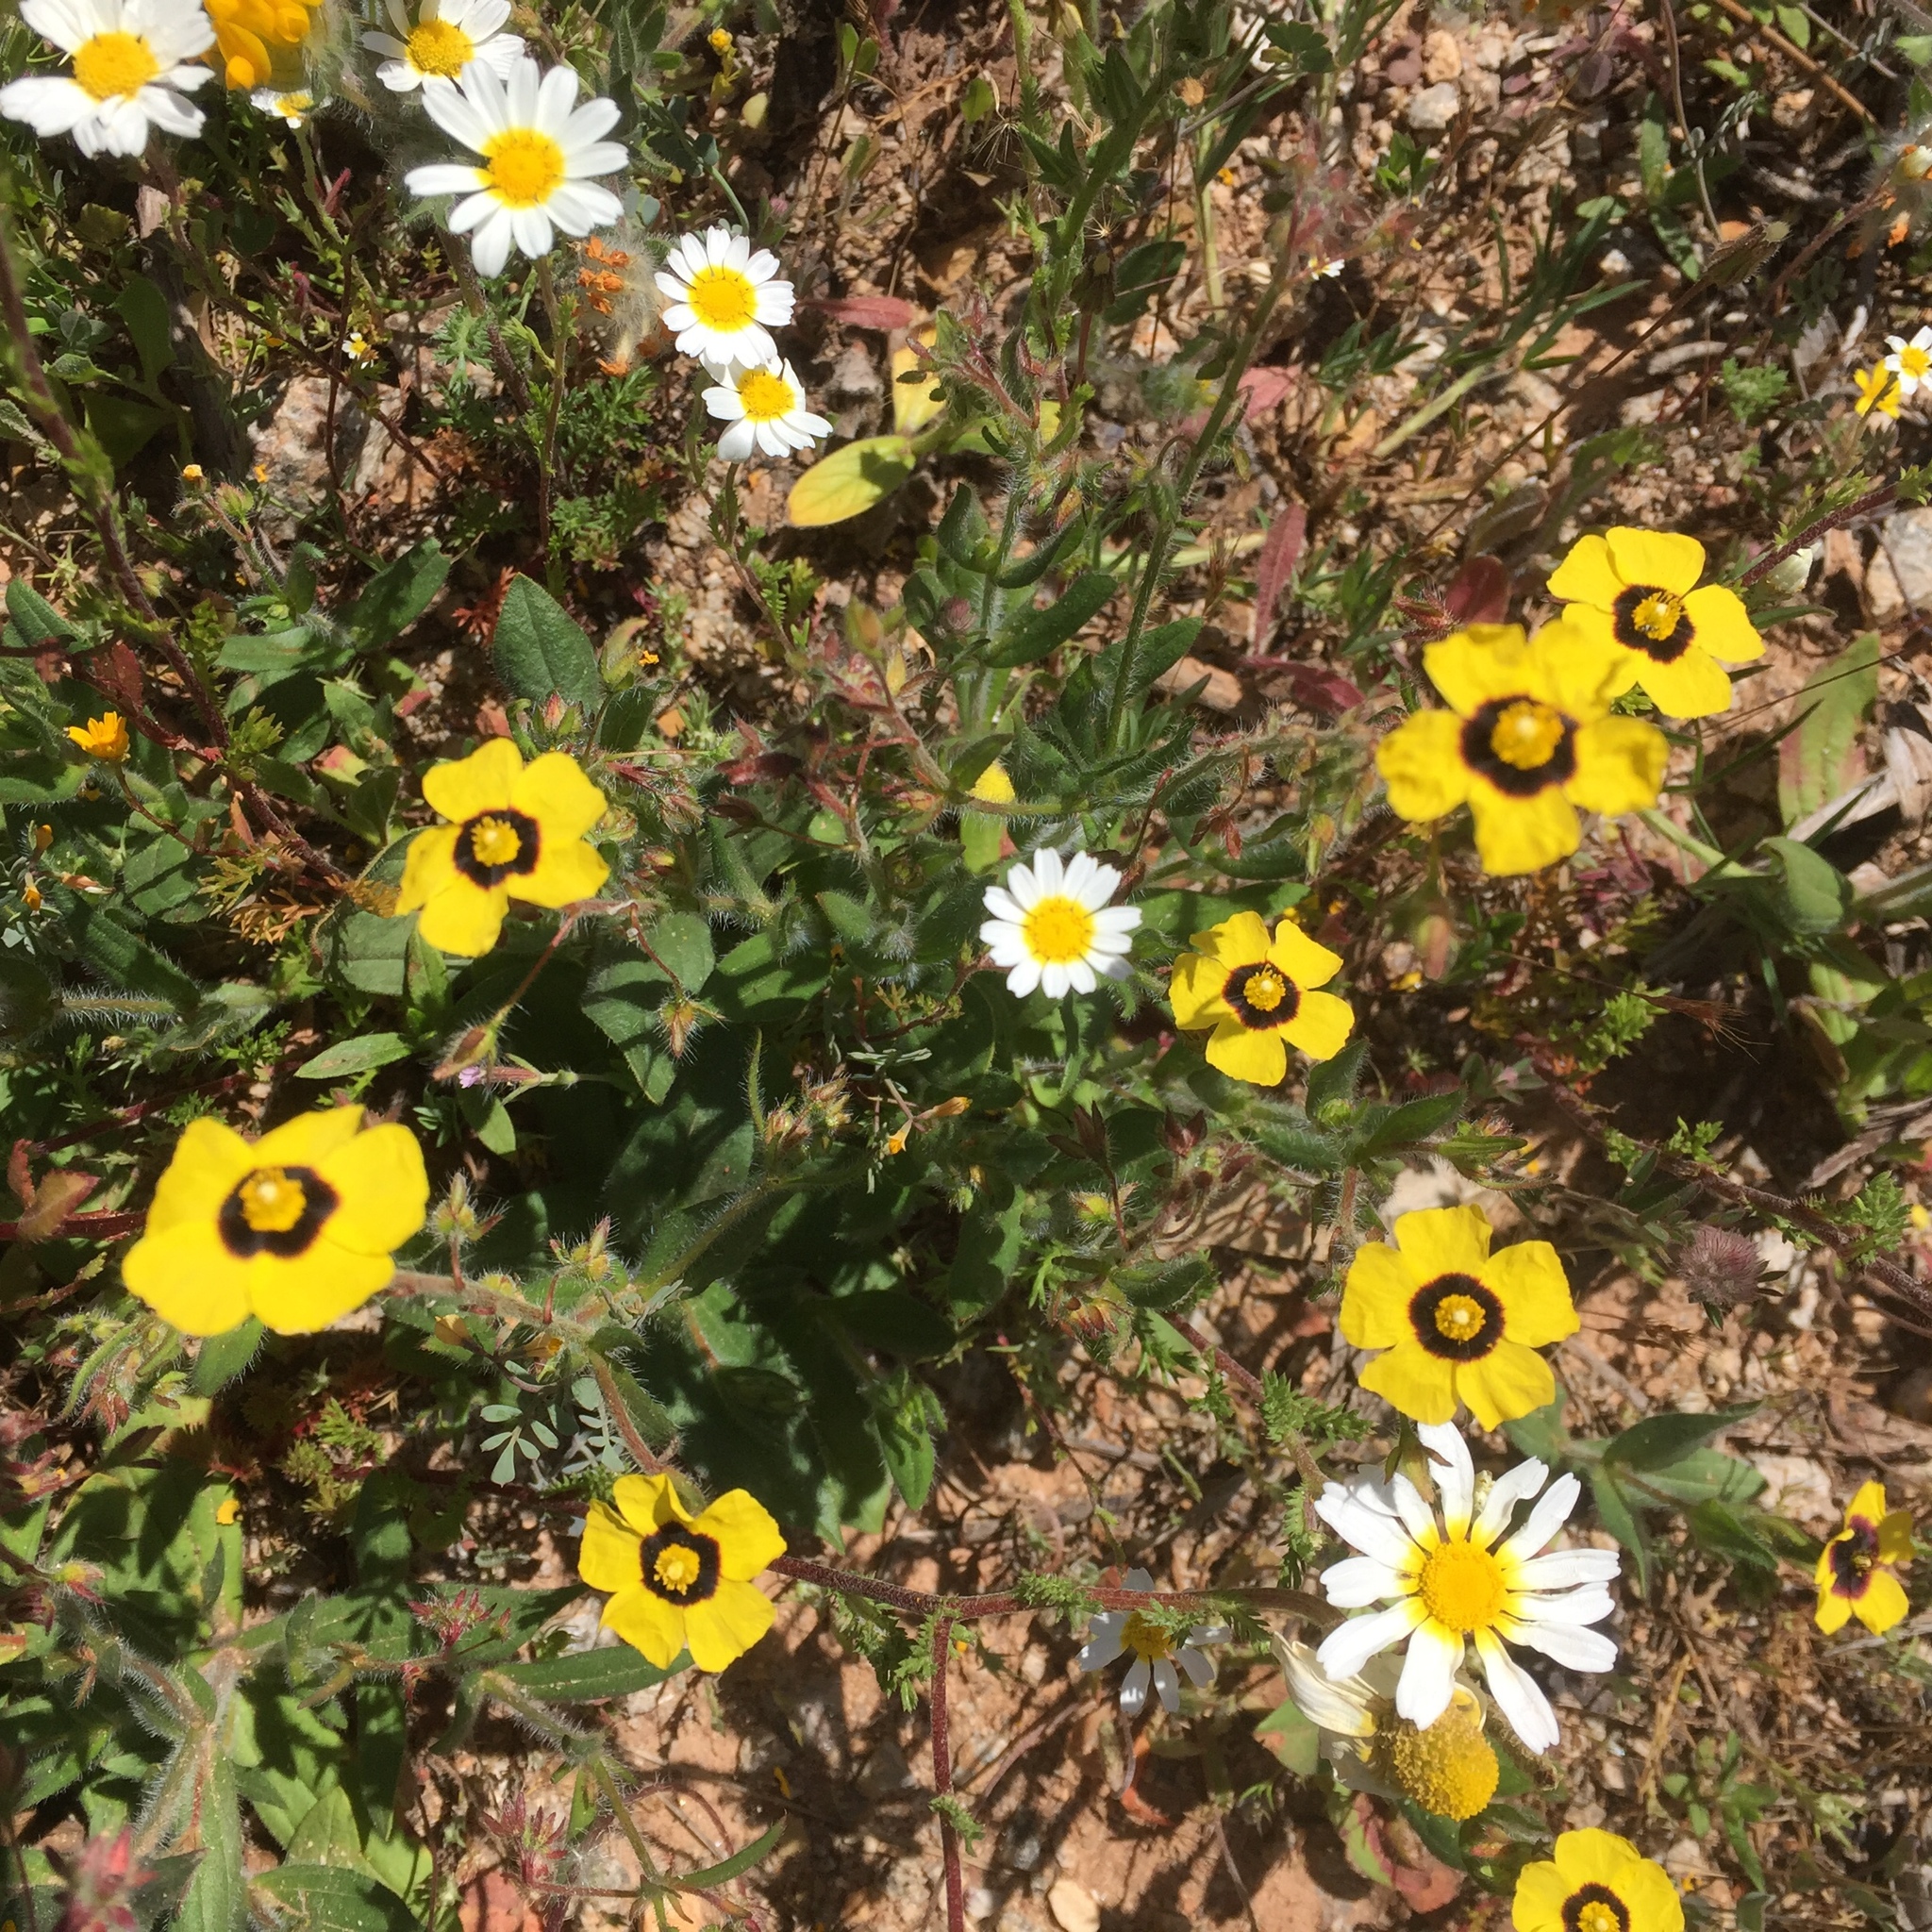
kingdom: Plantae
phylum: Tracheophyta
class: Magnoliopsida
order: Malvales
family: Cistaceae
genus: Tuberaria
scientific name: Tuberaria guttata
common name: Spotted rock-rose
